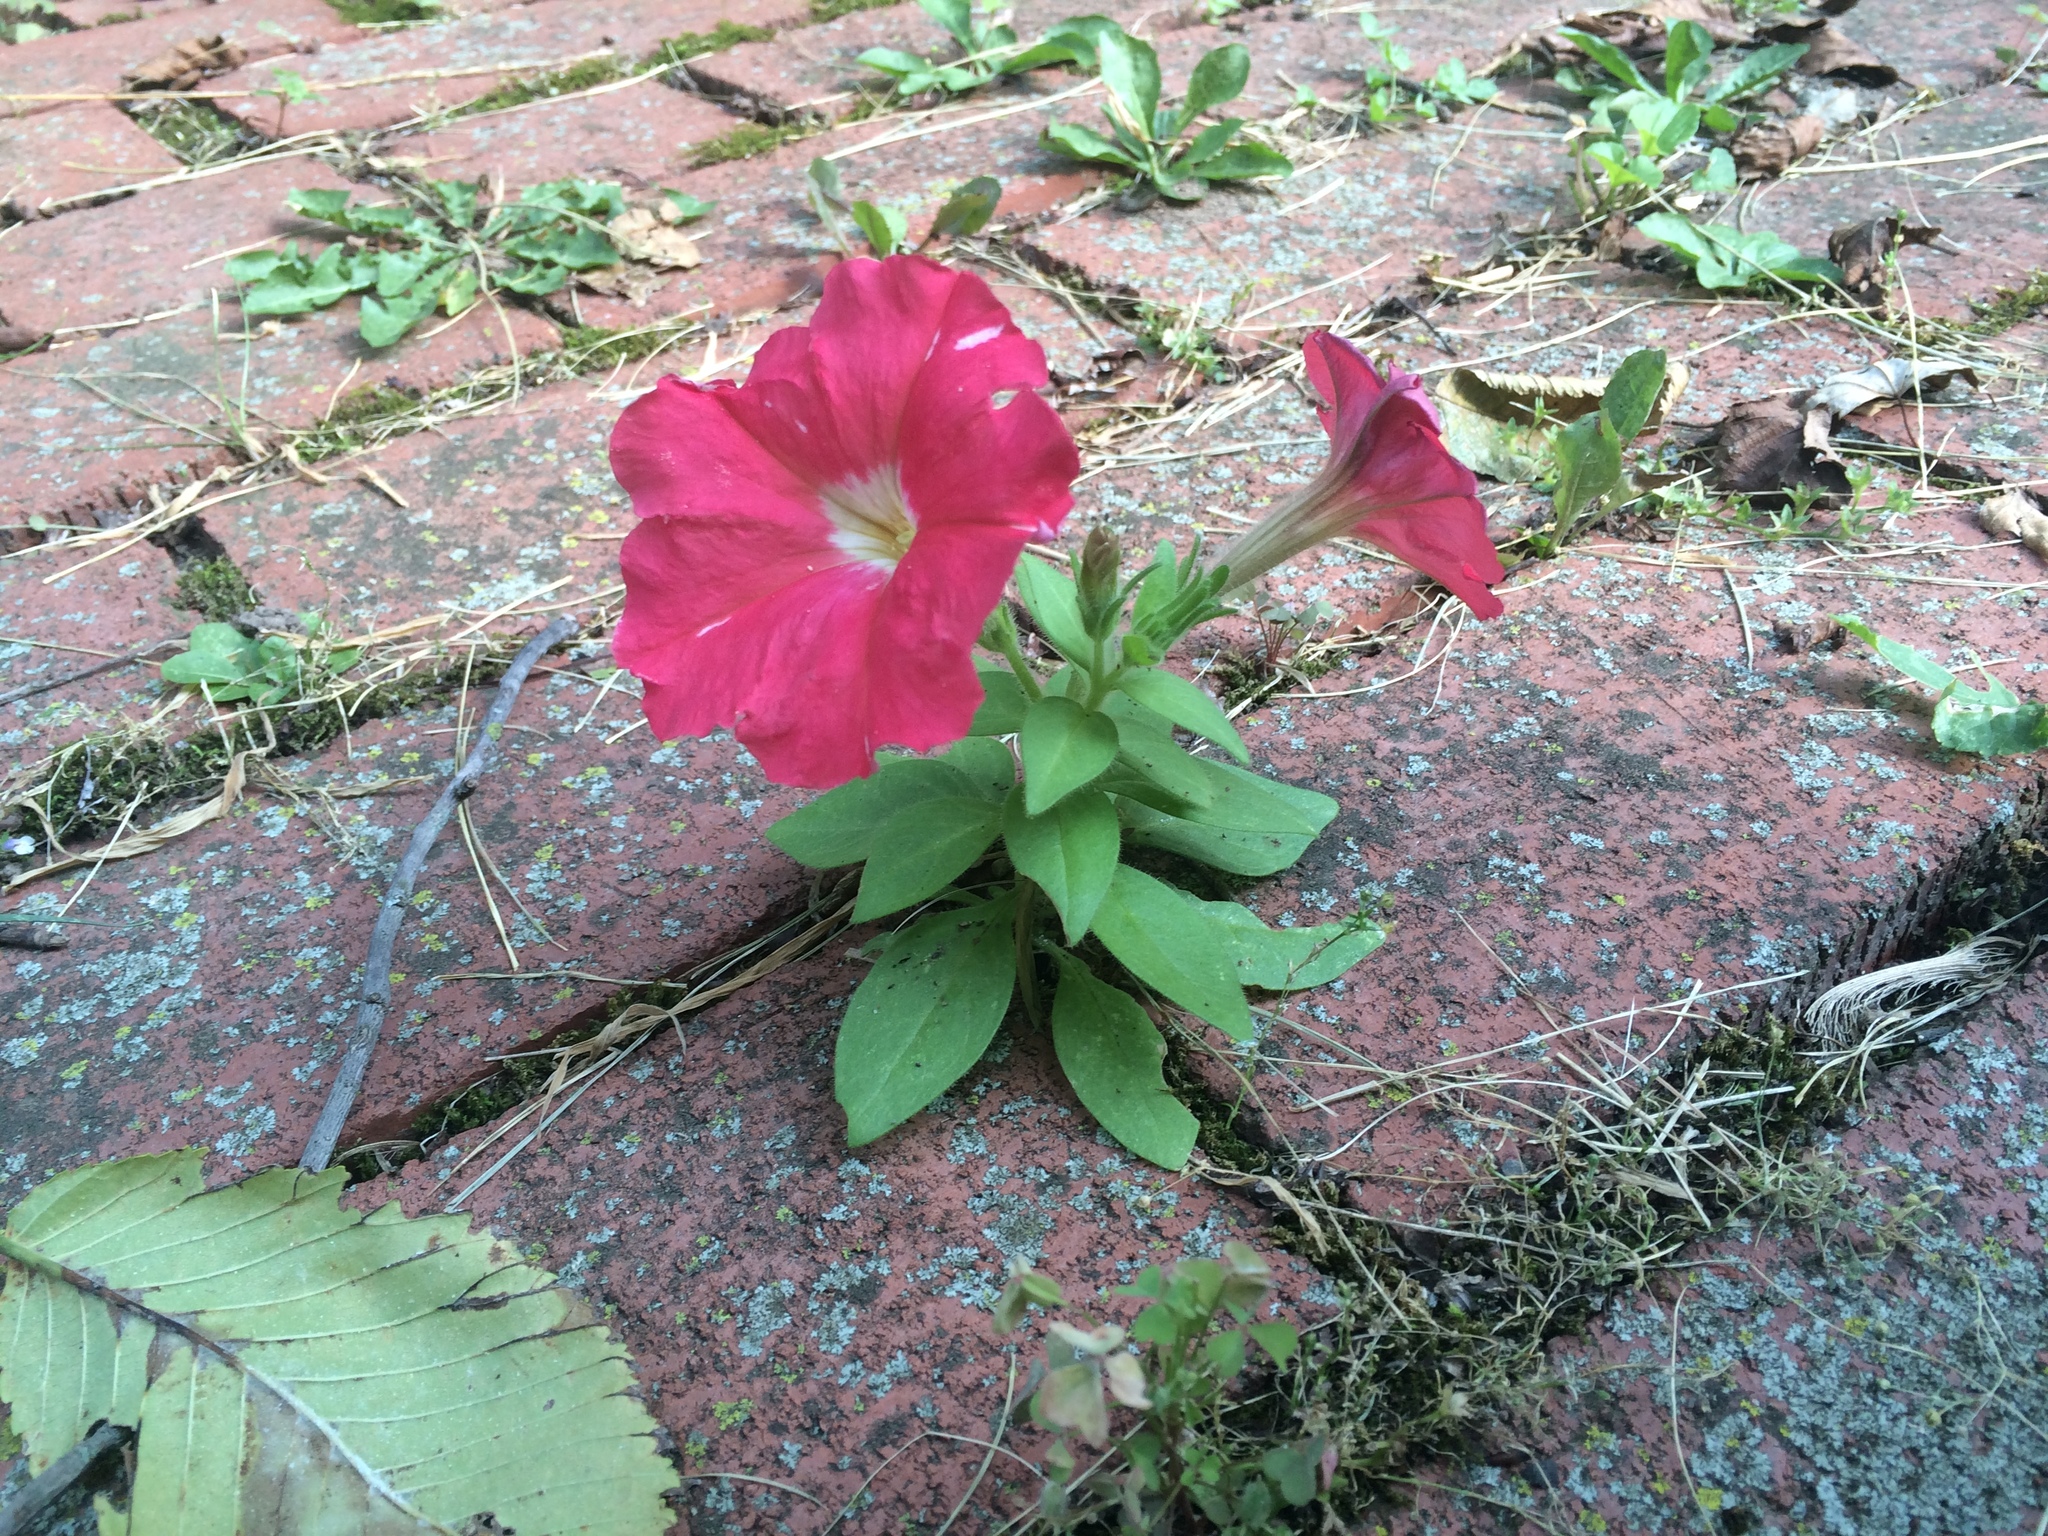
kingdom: Plantae
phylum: Tracheophyta
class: Magnoliopsida
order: Solanales
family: Solanaceae
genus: Petunia
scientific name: Petunia atkinsiana
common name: Petunia
